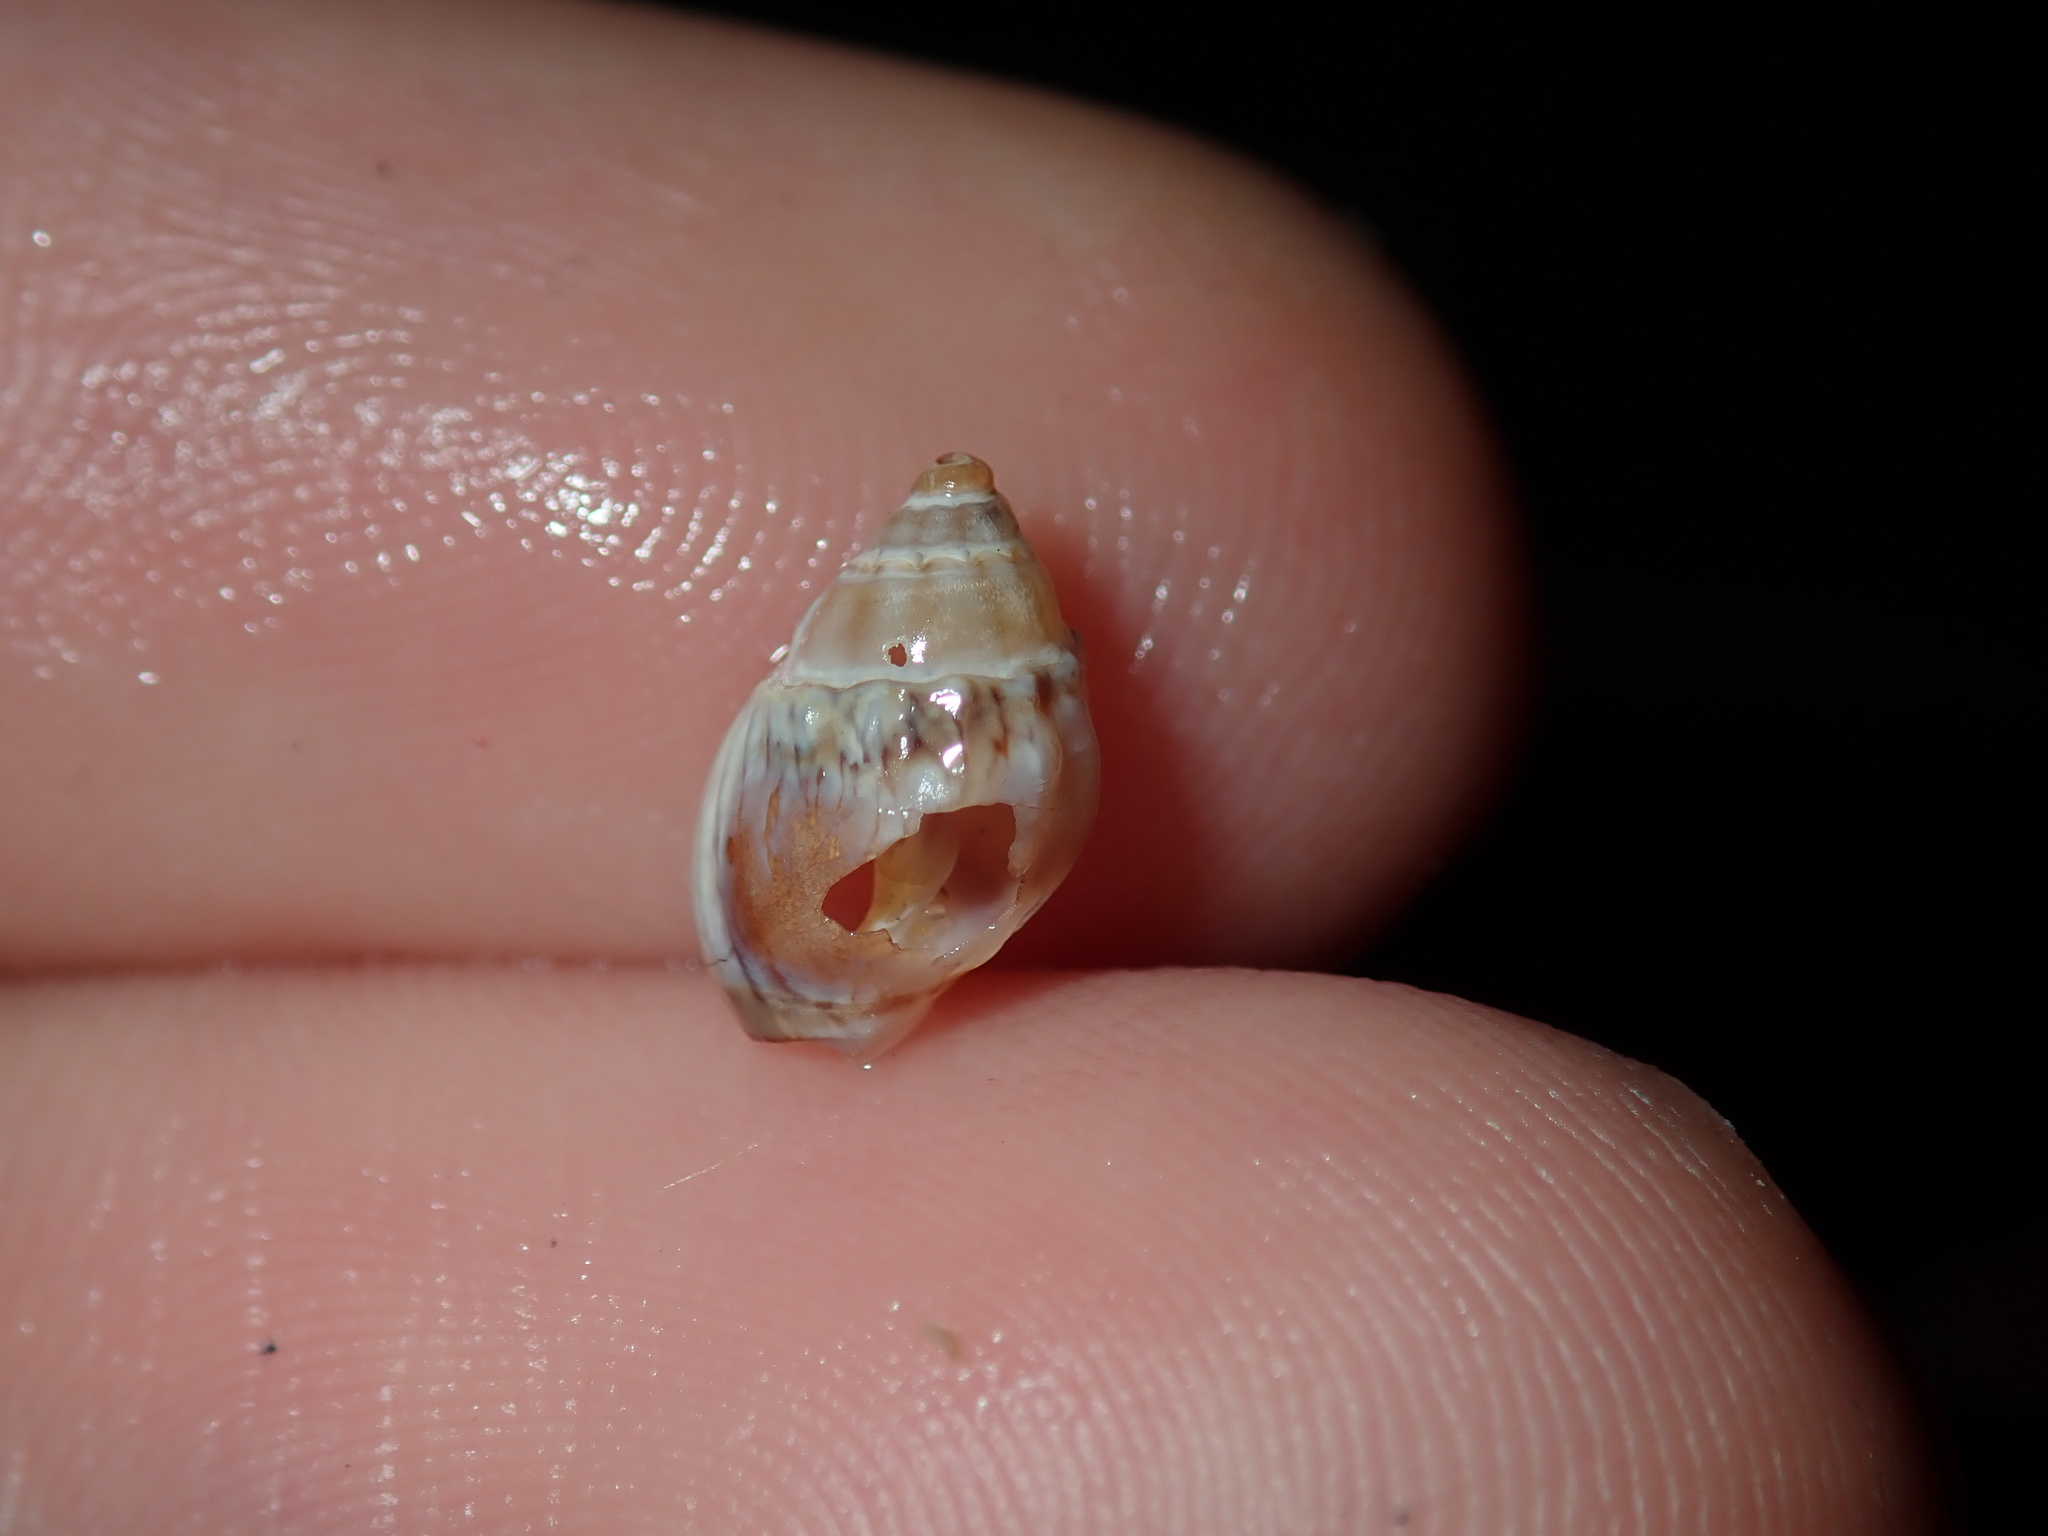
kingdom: Animalia
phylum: Mollusca
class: Gastropoda
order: Neogastropoda
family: Nassariidae
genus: Tritia
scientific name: Tritia burchardi
